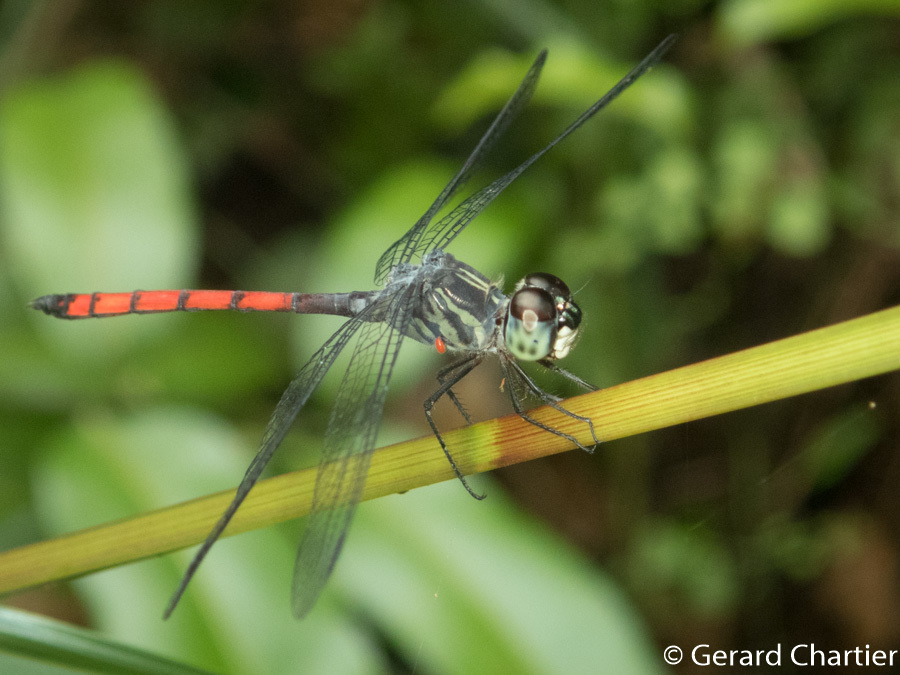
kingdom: Animalia
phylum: Arthropoda
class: Insecta
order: Odonata
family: Libellulidae
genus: Nesoxenia
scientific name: Nesoxenia lineata
